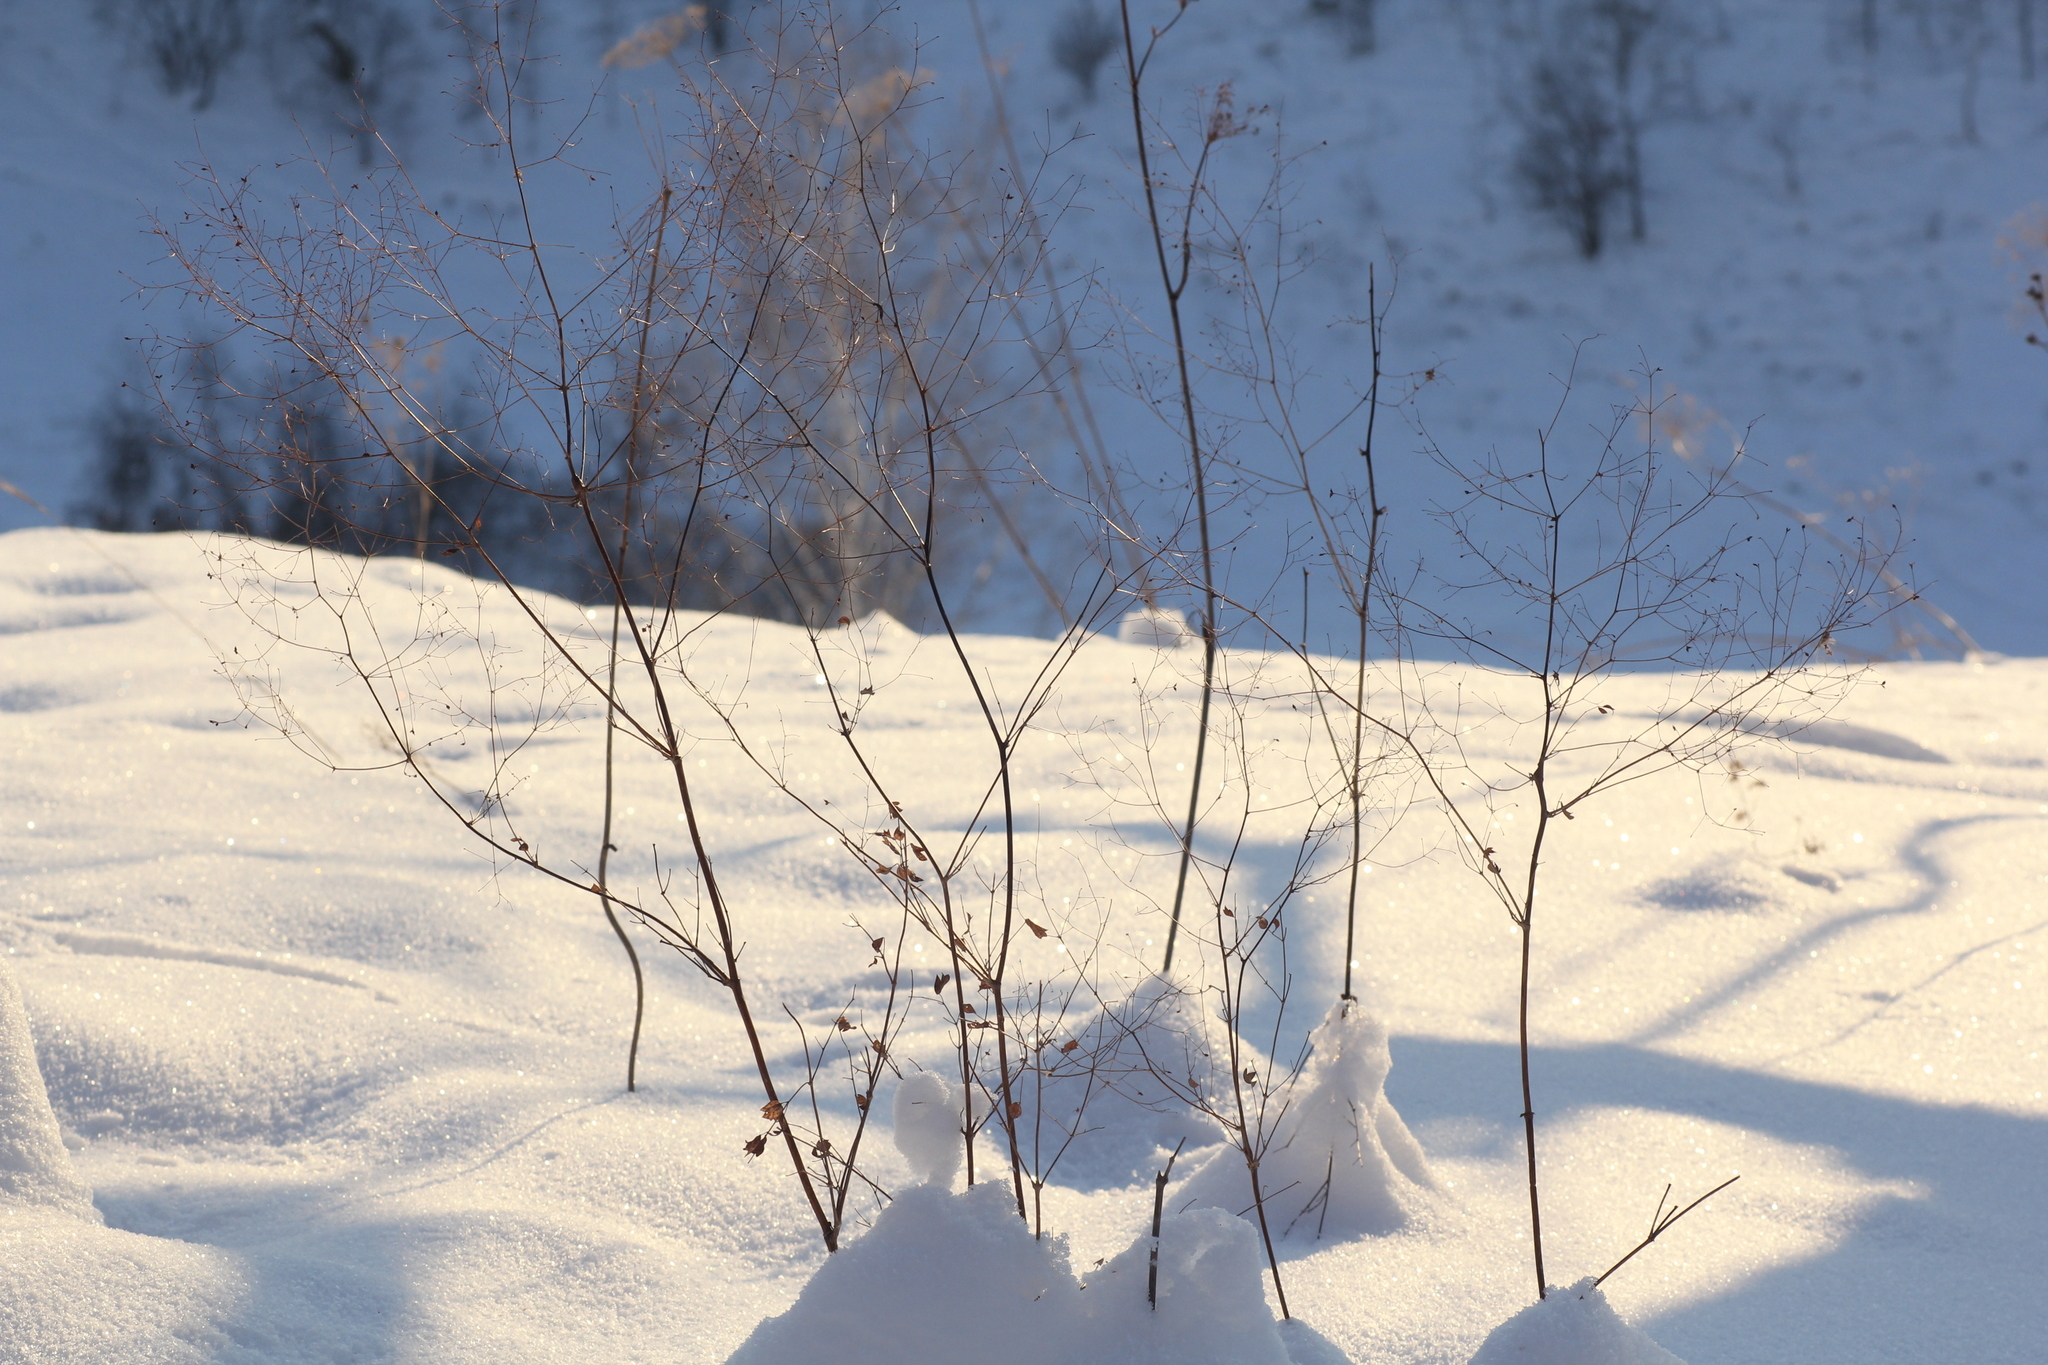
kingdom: Plantae
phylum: Tracheophyta
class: Magnoliopsida
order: Ranunculales
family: Ranunculaceae
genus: Thalictrum
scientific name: Thalictrum minus
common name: Lesser meadow-rue
